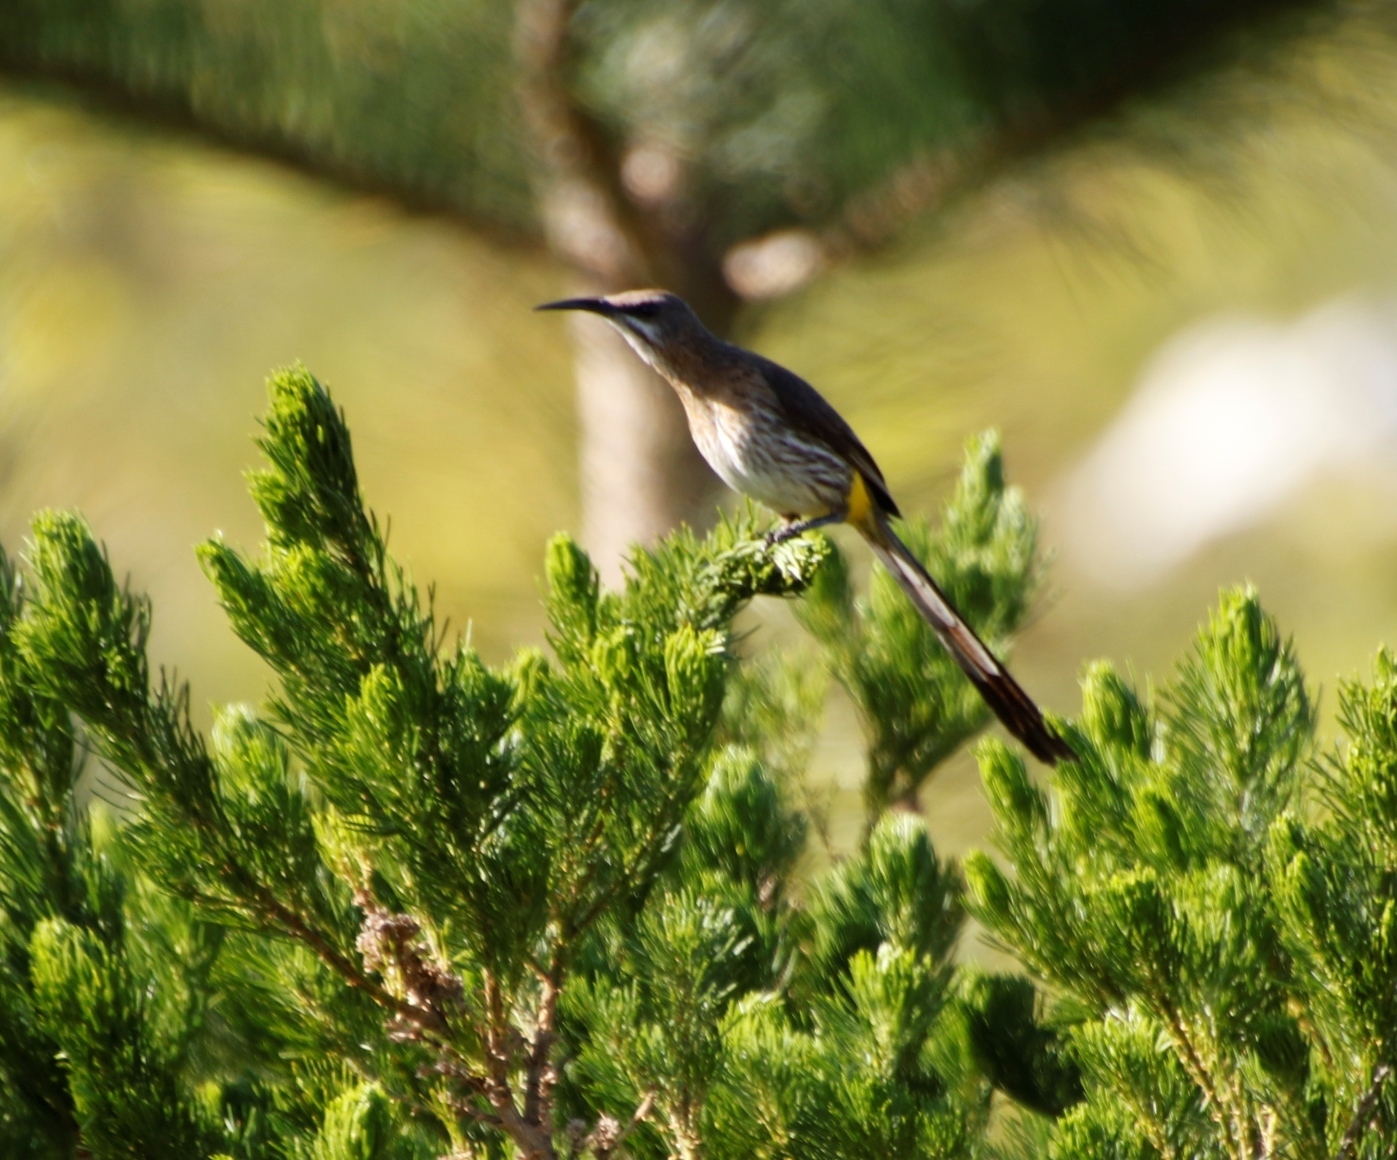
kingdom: Animalia
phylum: Chordata
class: Aves
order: Passeriformes
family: Promeropidae
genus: Promerops
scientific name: Promerops cafer
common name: Cape sugarbird
